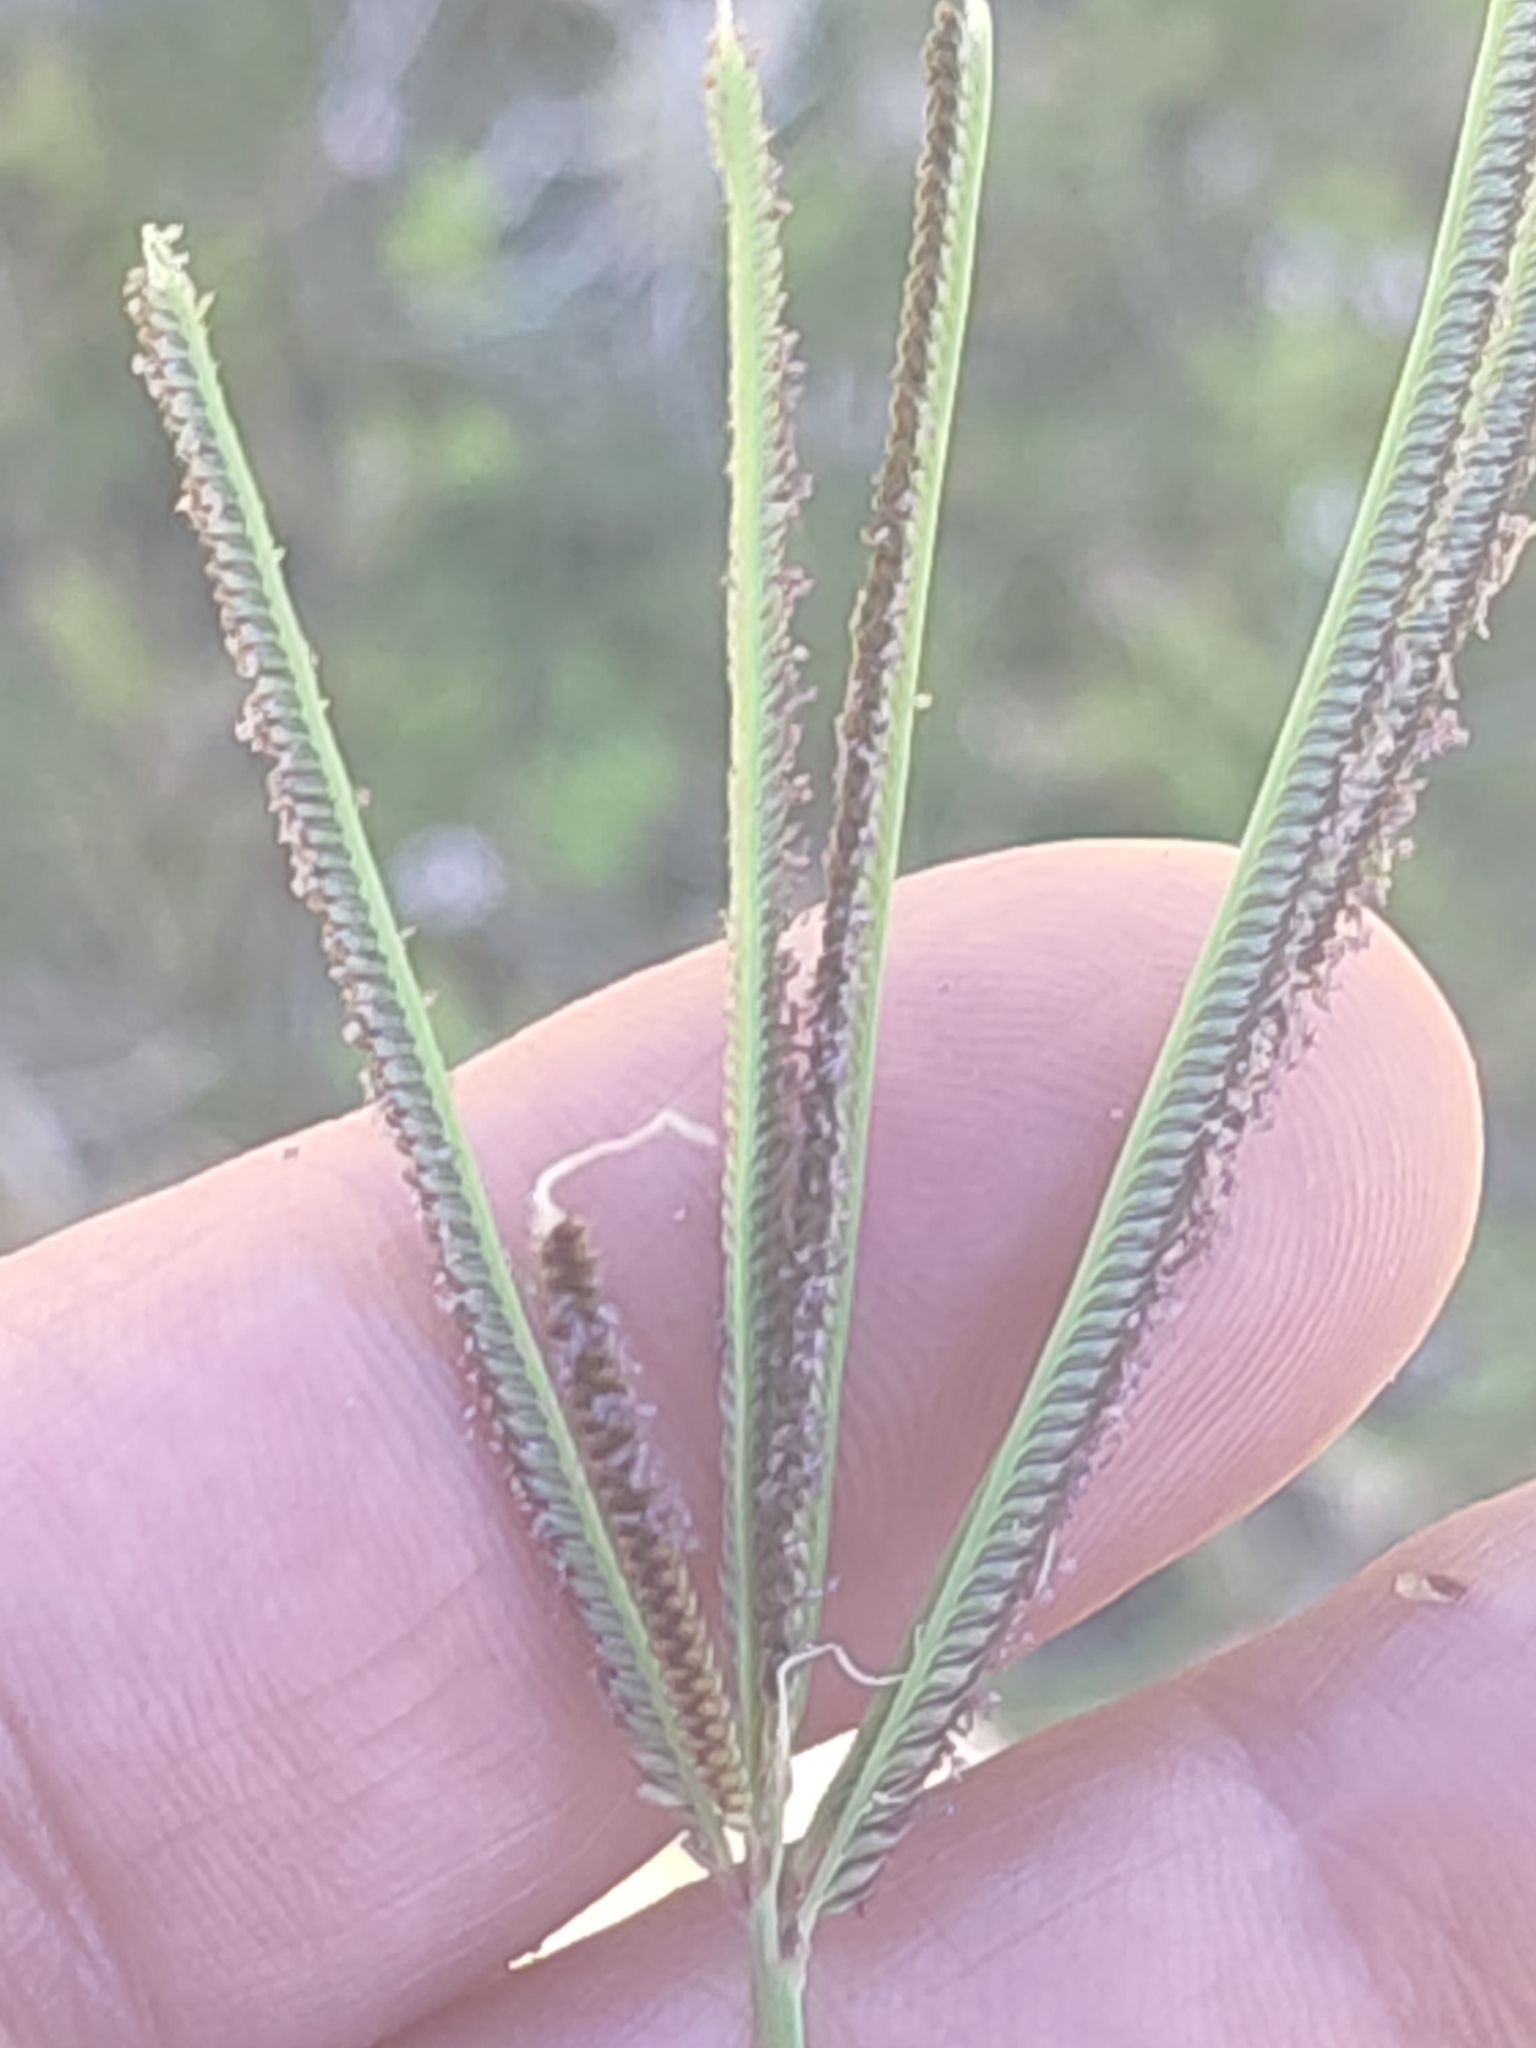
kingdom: Plantae
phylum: Tracheophyta
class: Liliopsida
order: Poales
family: Poaceae
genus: Eustachys
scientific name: Eustachys petraea
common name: Pinewoods fingergrass
